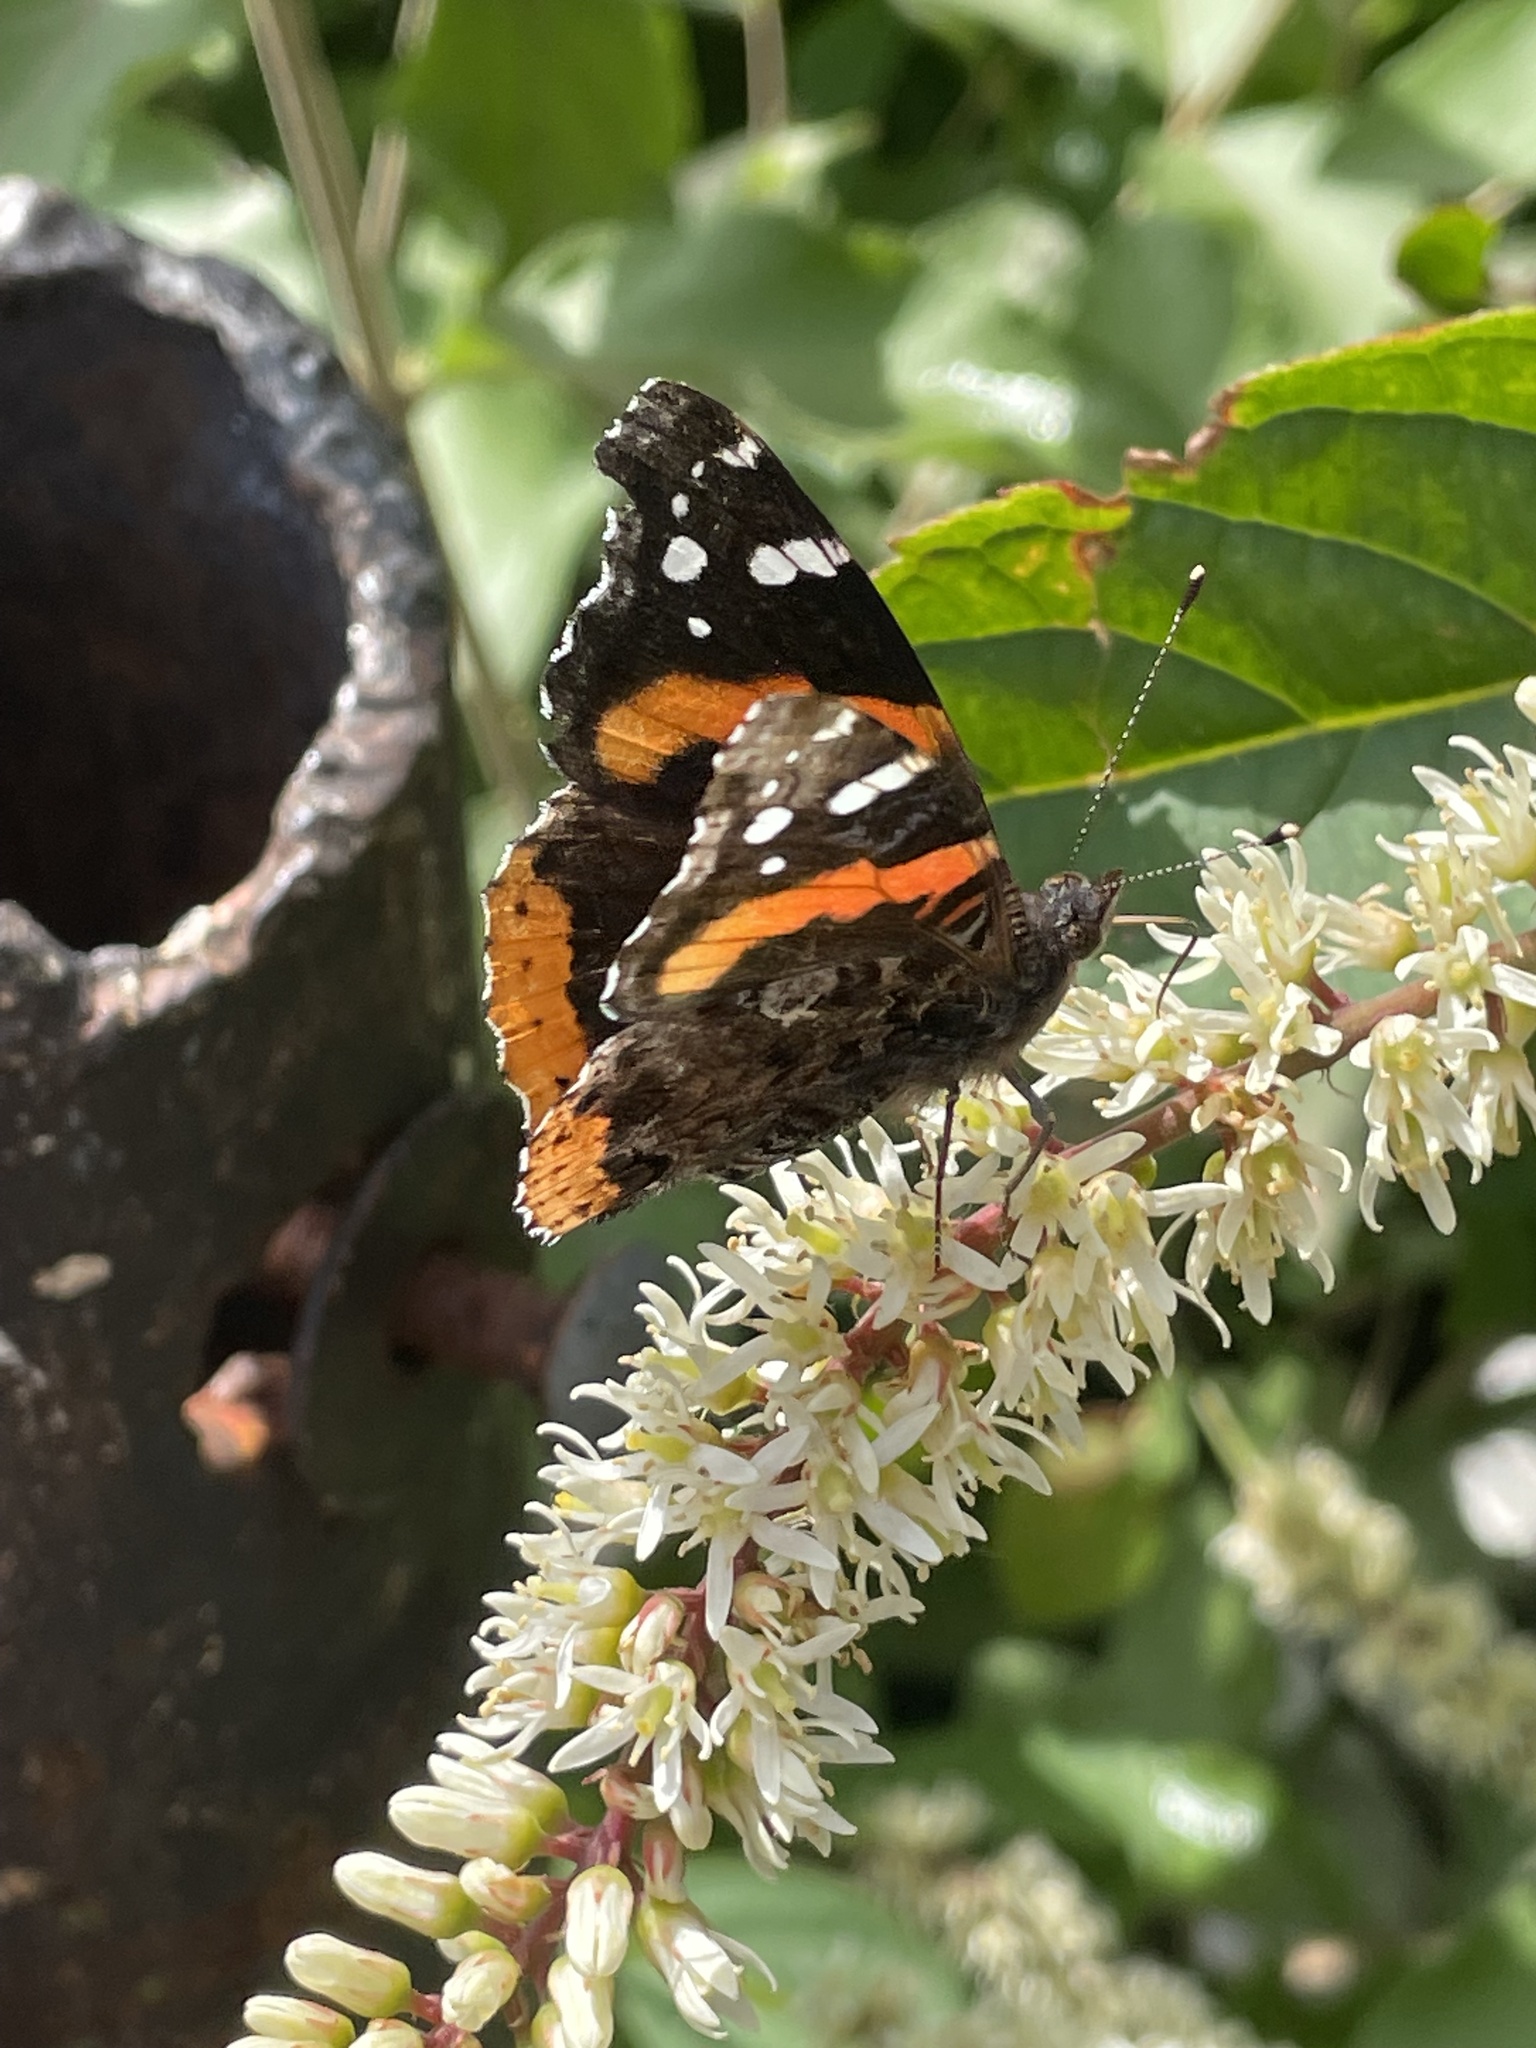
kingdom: Animalia
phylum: Arthropoda
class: Insecta
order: Lepidoptera
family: Nymphalidae
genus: Vanessa
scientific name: Vanessa atalanta
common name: Red admiral
